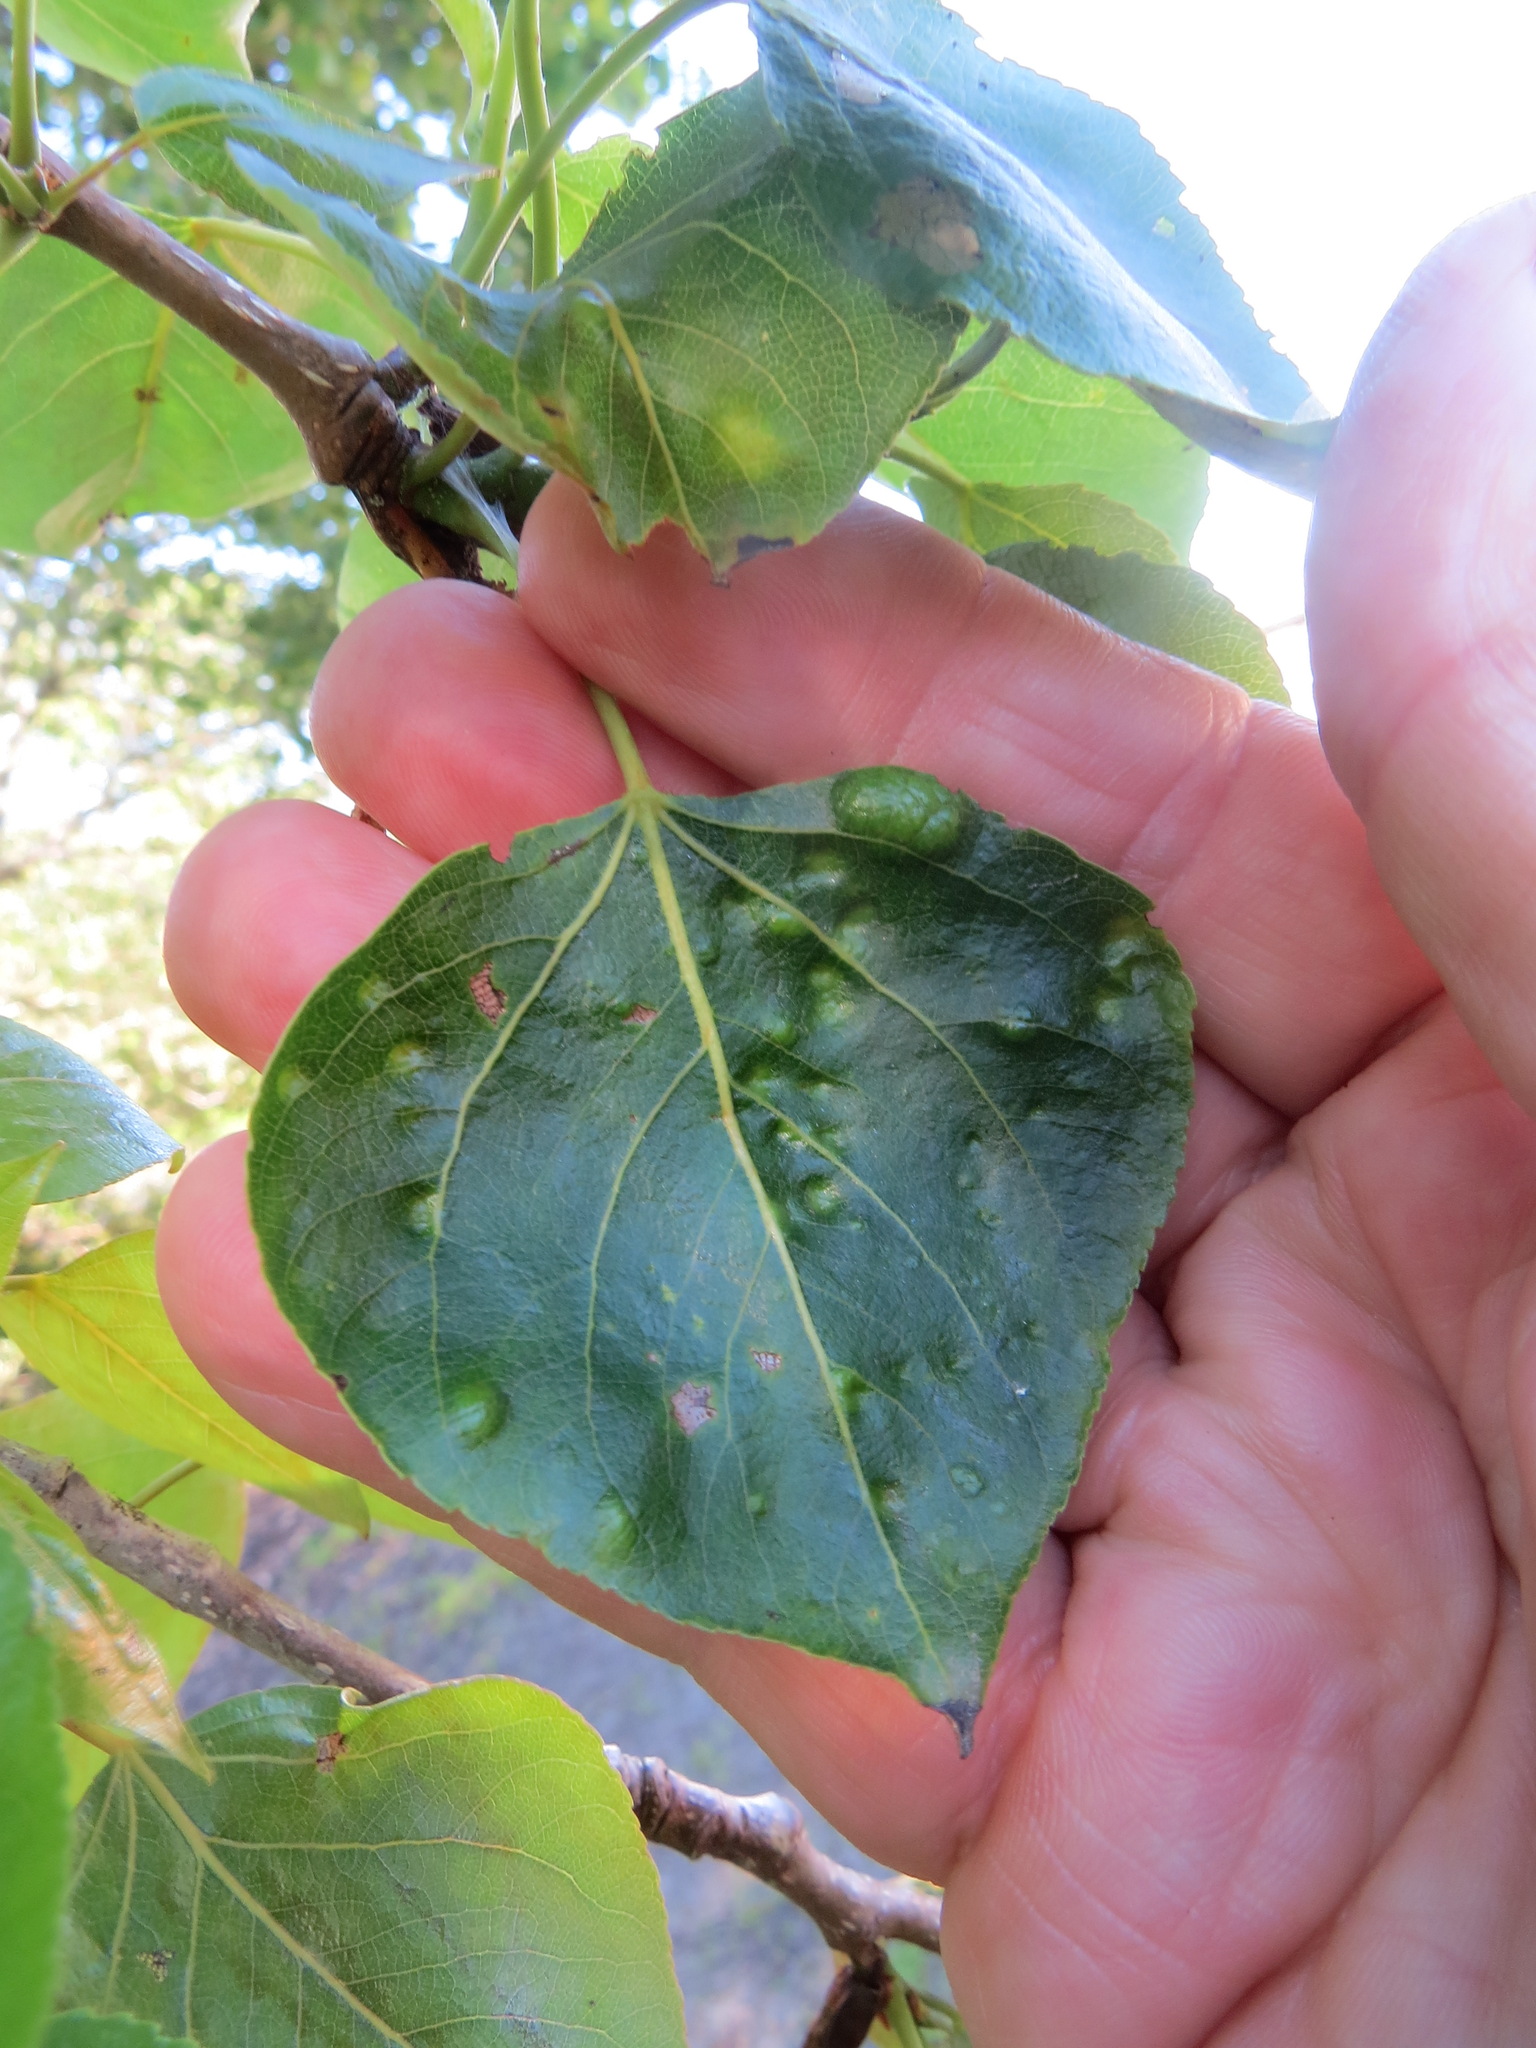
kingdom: Fungi
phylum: Ascomycota
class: Taphrinomycetes
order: Taphrinales
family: Taphrinaceae
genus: Taphrina
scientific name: Taphrina populi-salicis
